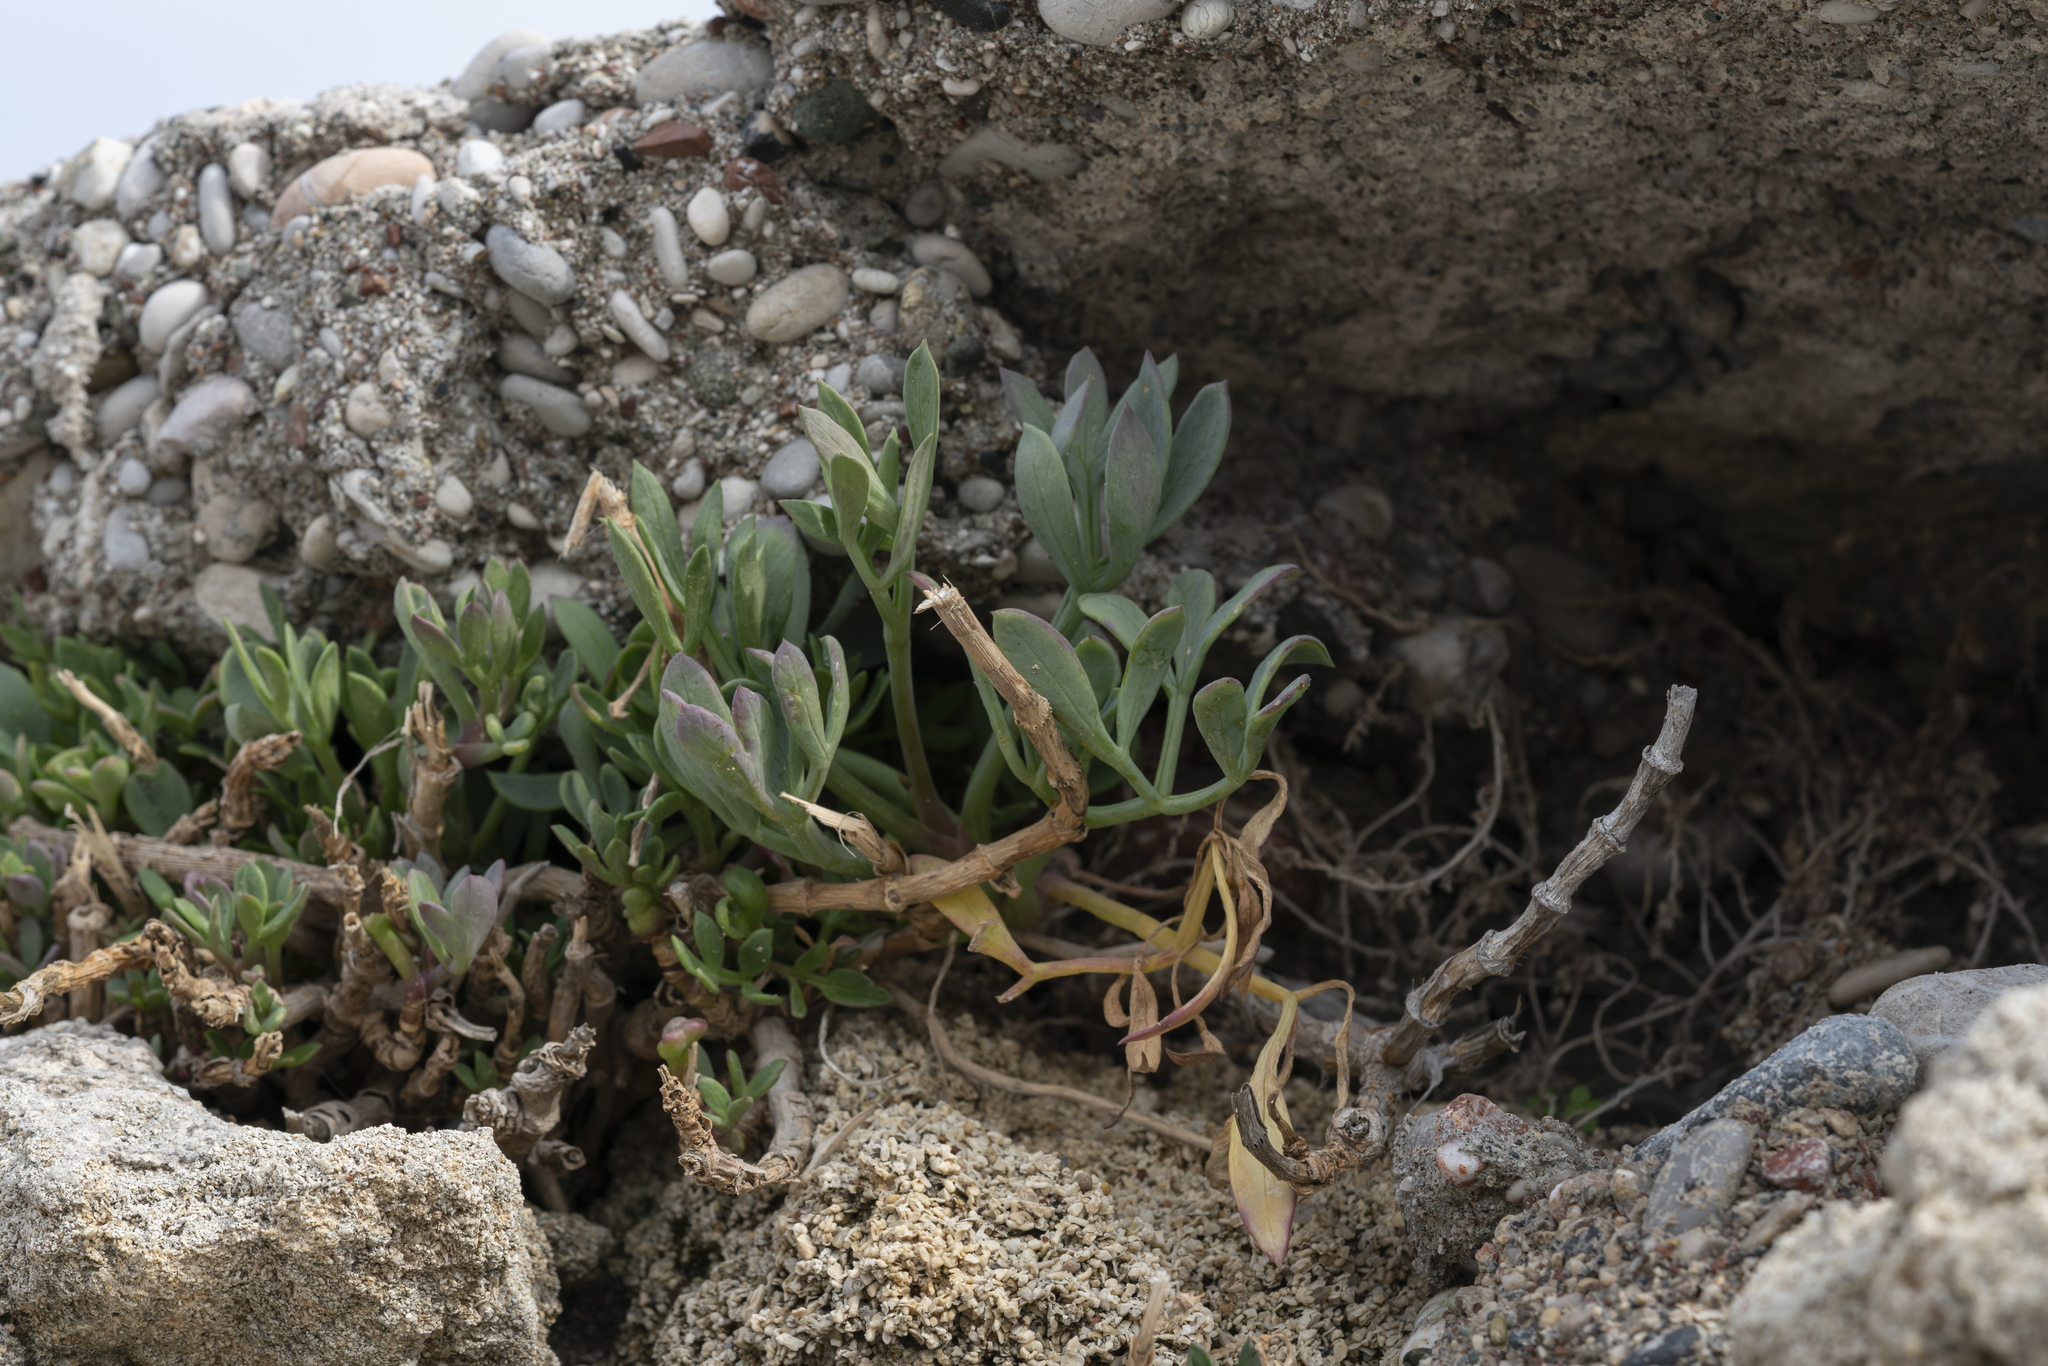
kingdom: Plantae
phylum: Tracheophyta
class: Magnoliopsida
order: Apiales
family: Apiaceae
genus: Crithmum
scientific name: Crithmum maritimum
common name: Rock samphire
